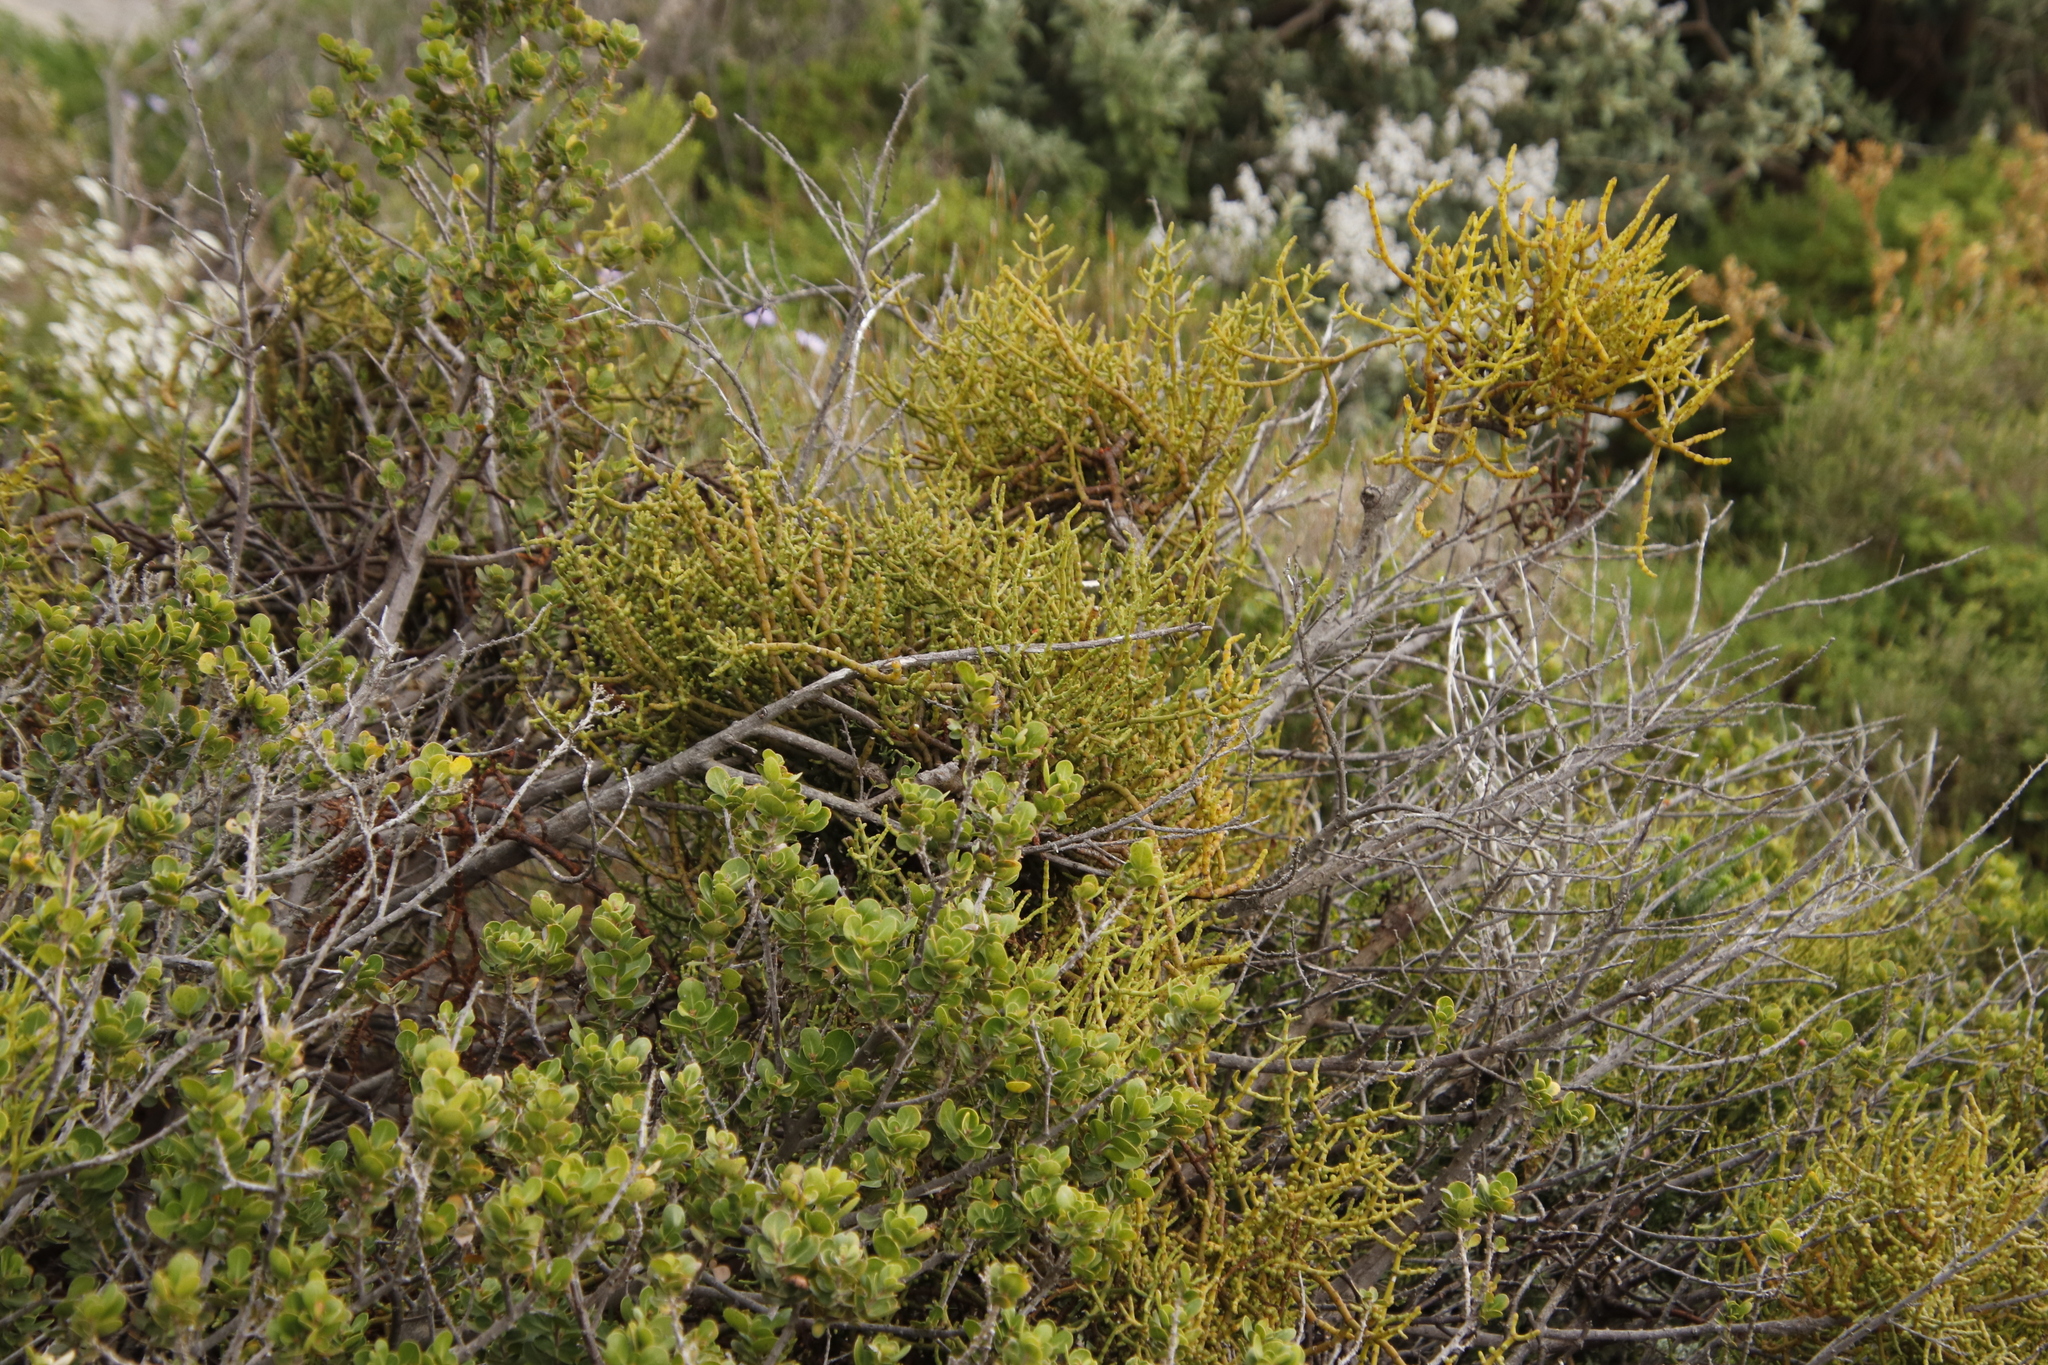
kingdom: Plantae
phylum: Tracheophyta
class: Magnoliopsida
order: Sapindales
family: Anacardiaceae
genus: Searsia
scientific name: Searsia lucida
